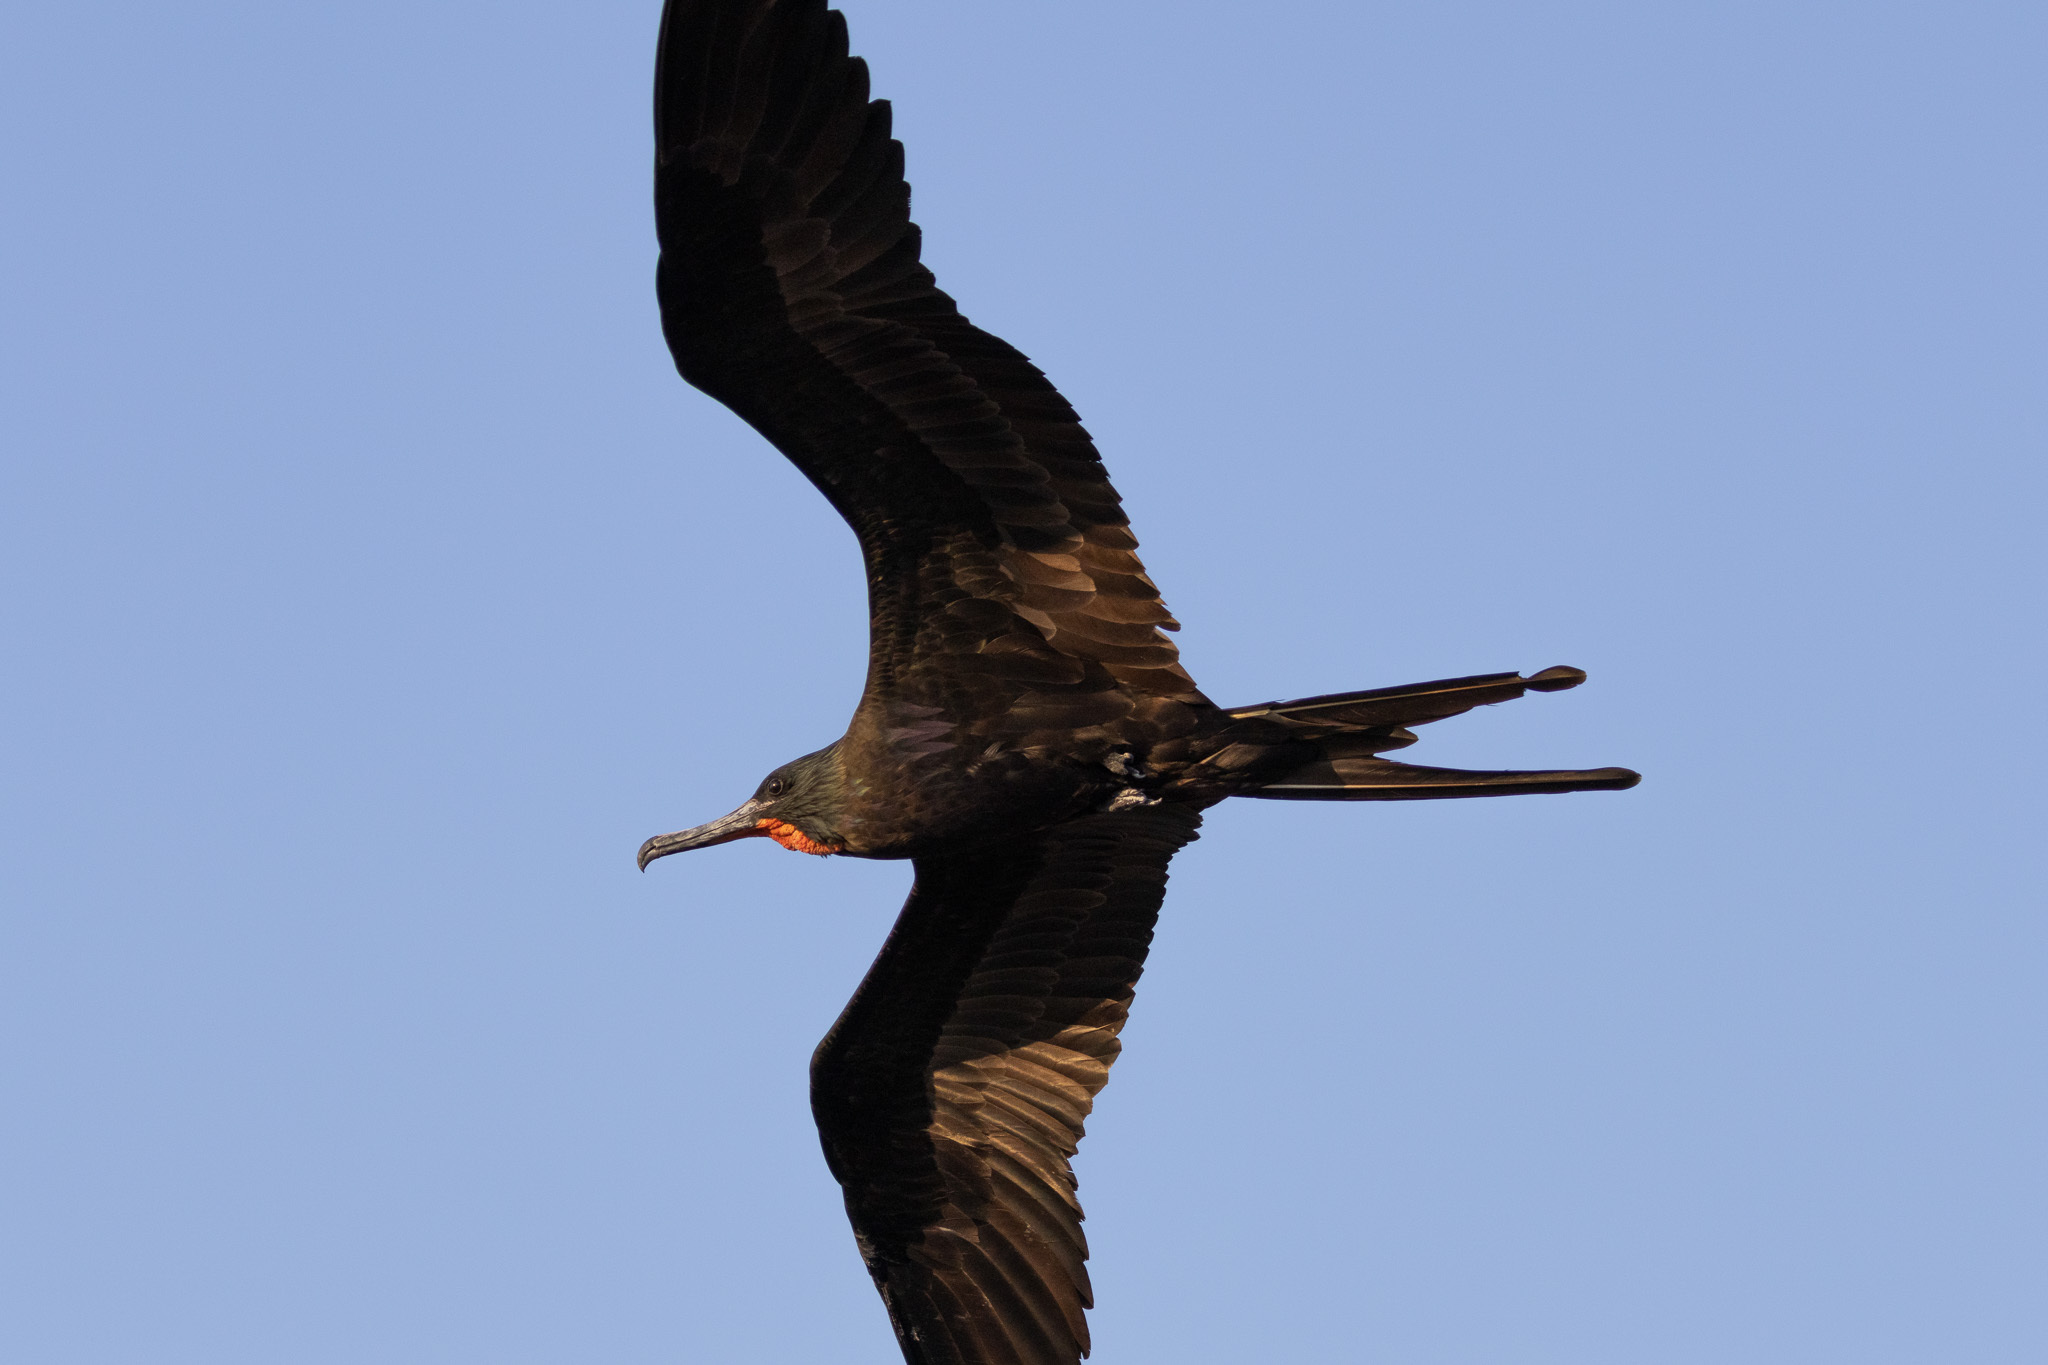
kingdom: Animalia
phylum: Chordata
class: Aves
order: Suliformes
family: Fregatidae
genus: Fregata
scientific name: Fregata magnificens
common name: Magnificent frigatebird
